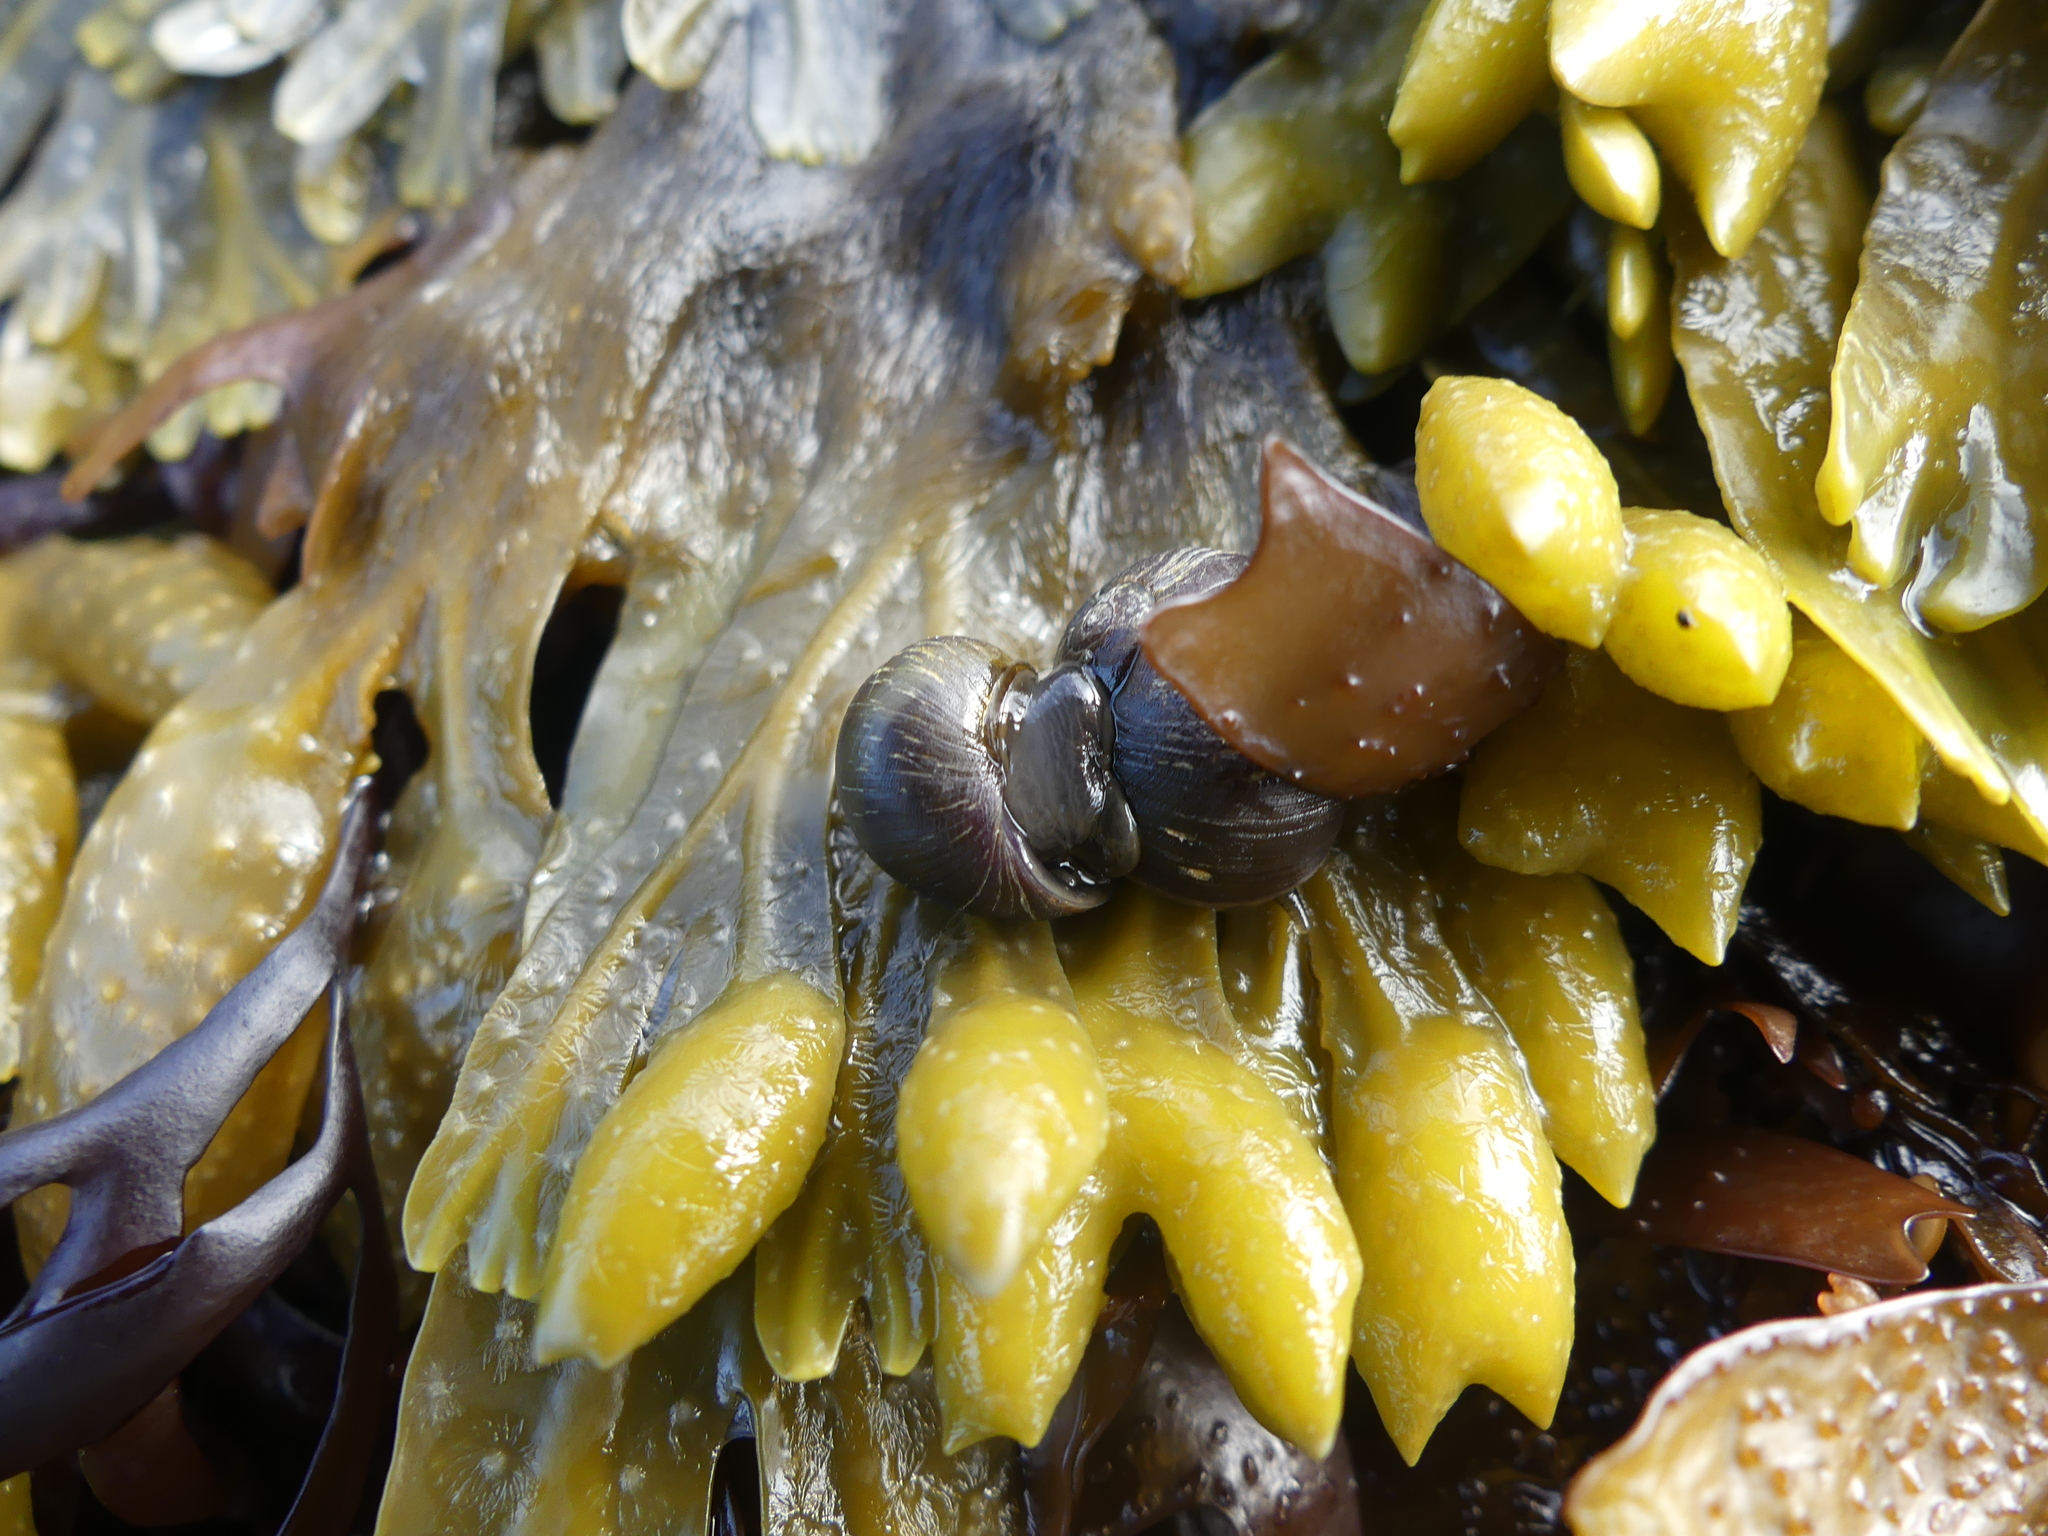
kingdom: Animalia
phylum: Mollusca
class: Gastropoda
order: Littorinimorpha
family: Littorinidae
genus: Littorina
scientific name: Littorina obtusata
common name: Flat periwinkle
